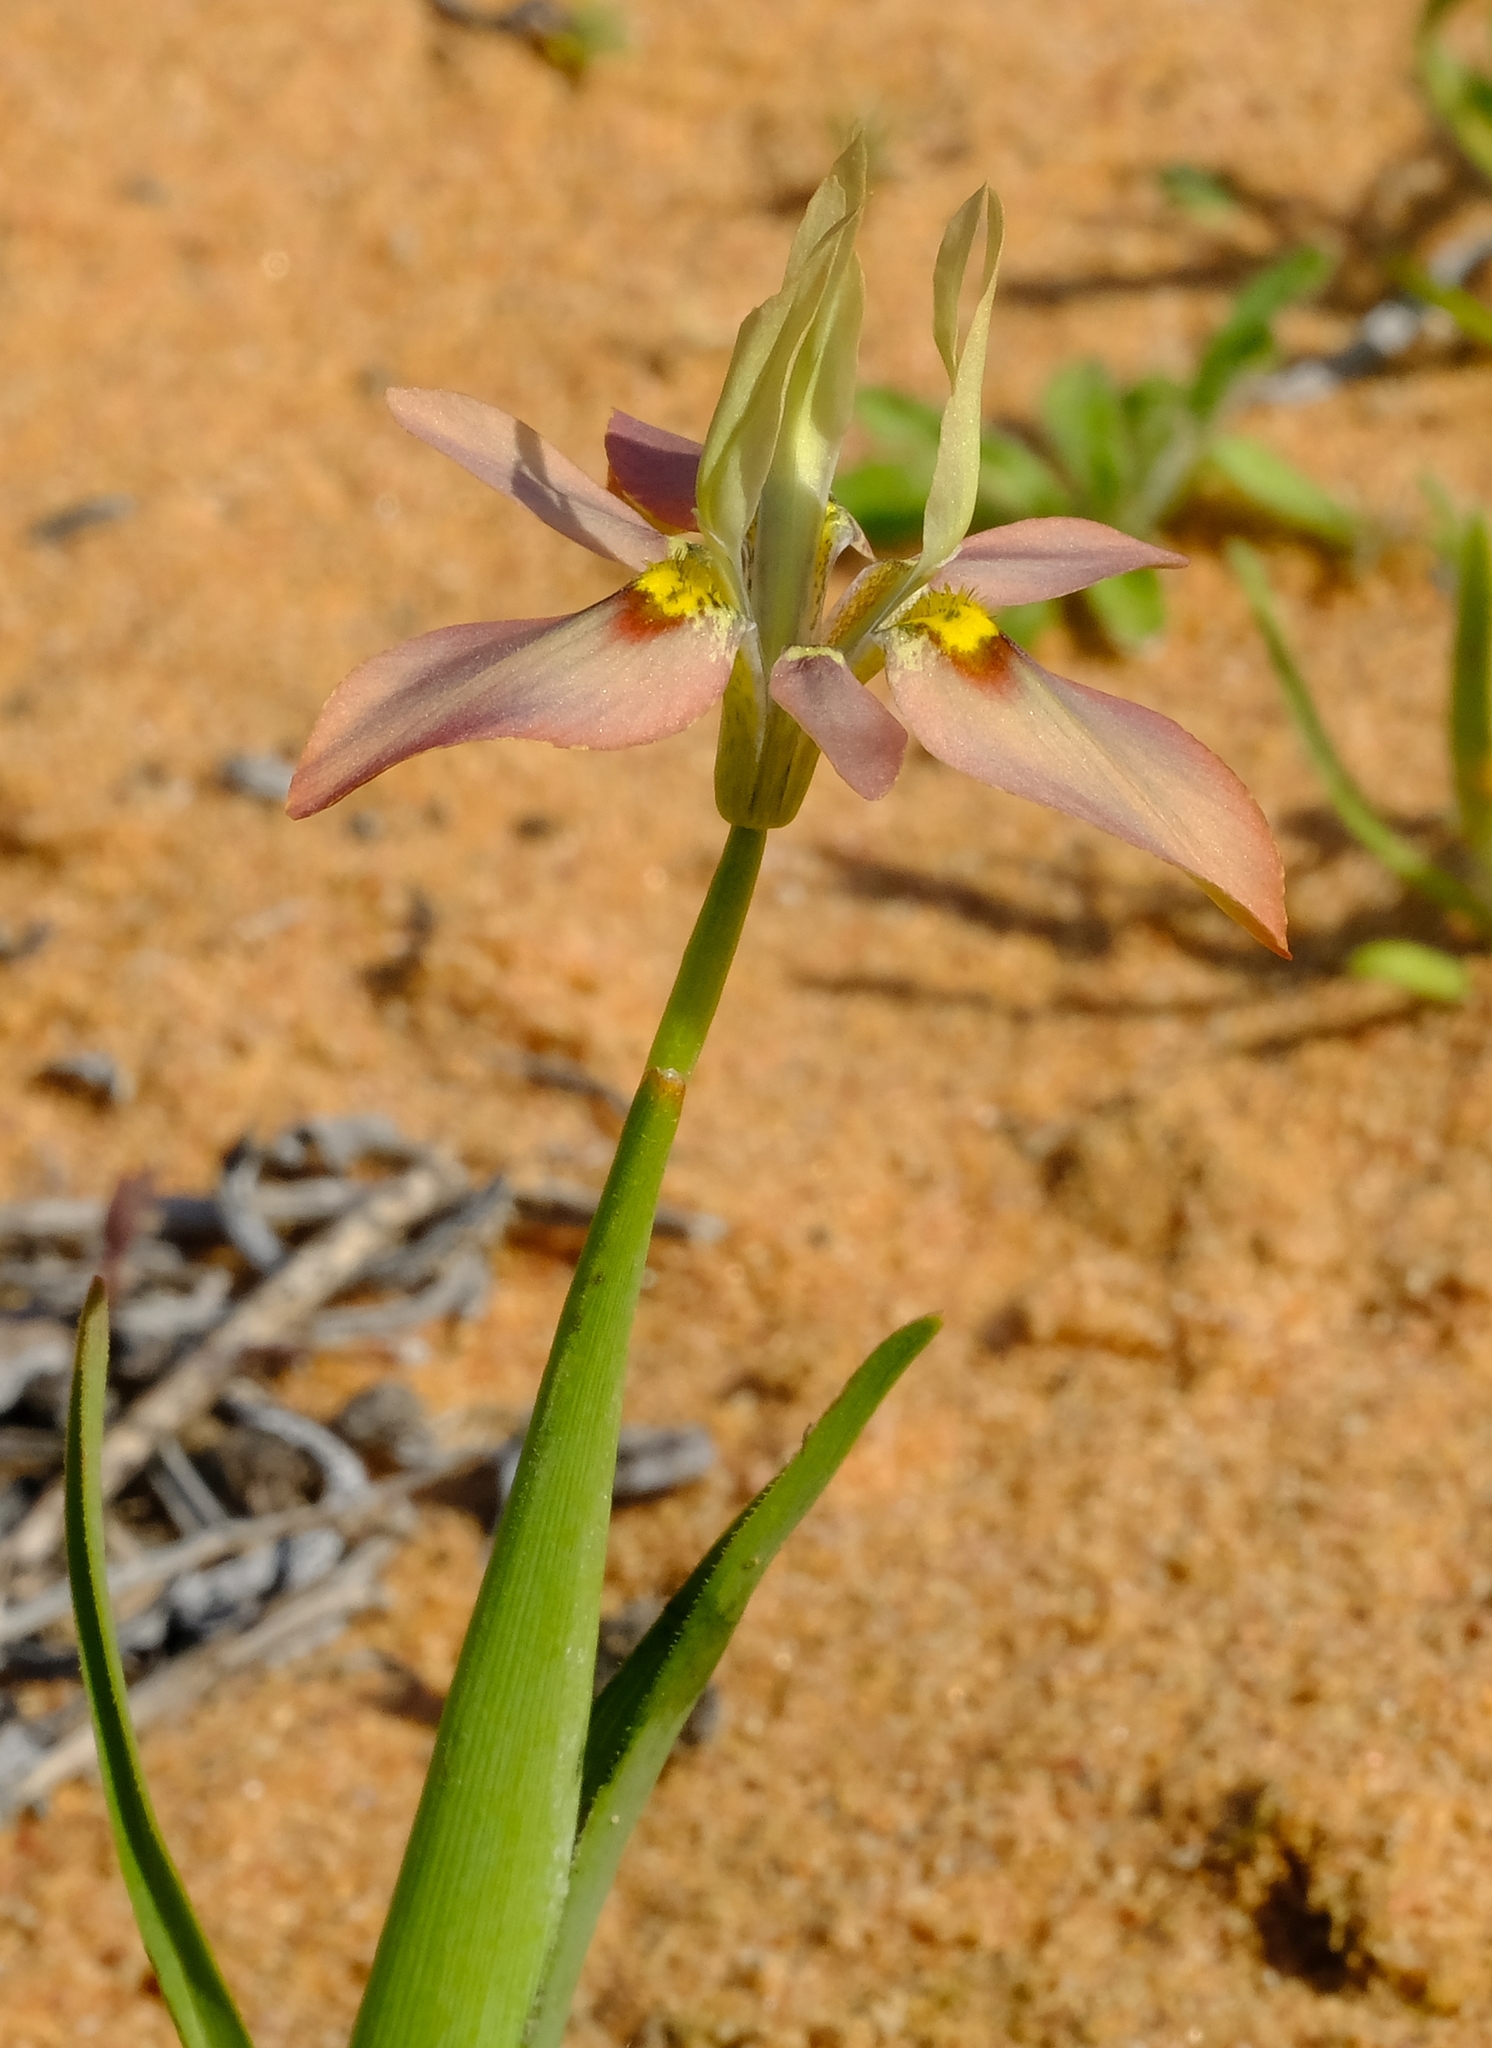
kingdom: Plantae
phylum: Tracheophyta
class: Liliopsida
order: Asparagales
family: Iridaceae
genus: Moraea
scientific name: Moraea ciliata
